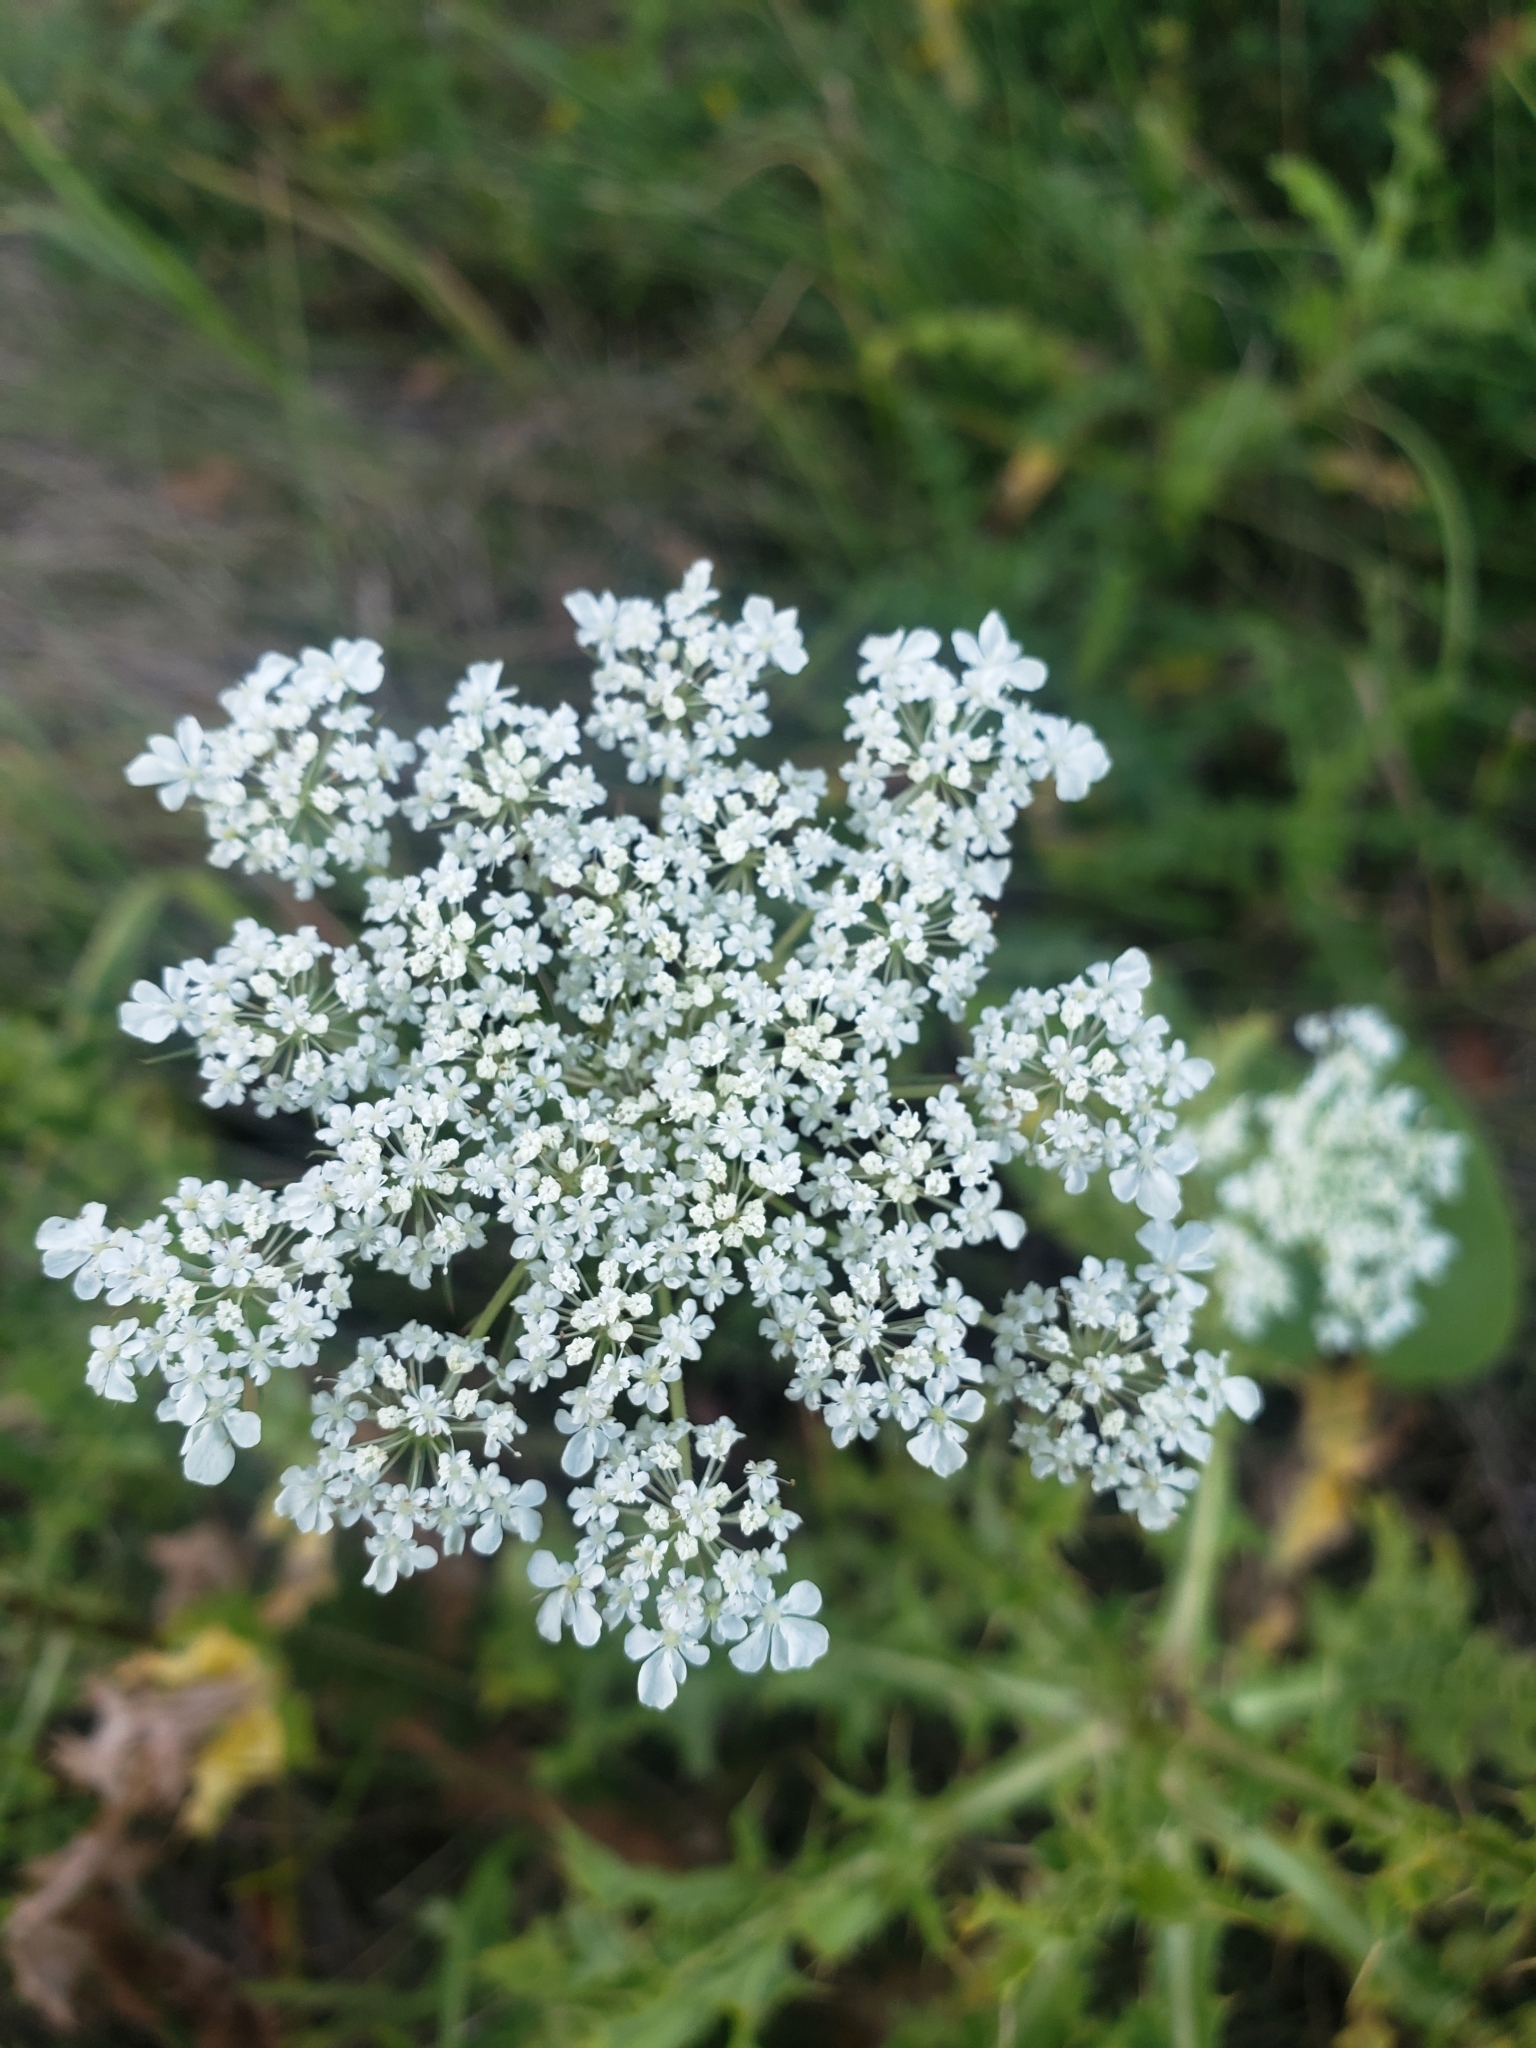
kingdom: Plantae
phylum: Tracheophyta
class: Magnoliopsida
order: Apiales
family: Apiaceae
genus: Daucus
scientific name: Daucus carota
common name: Wild carrot
